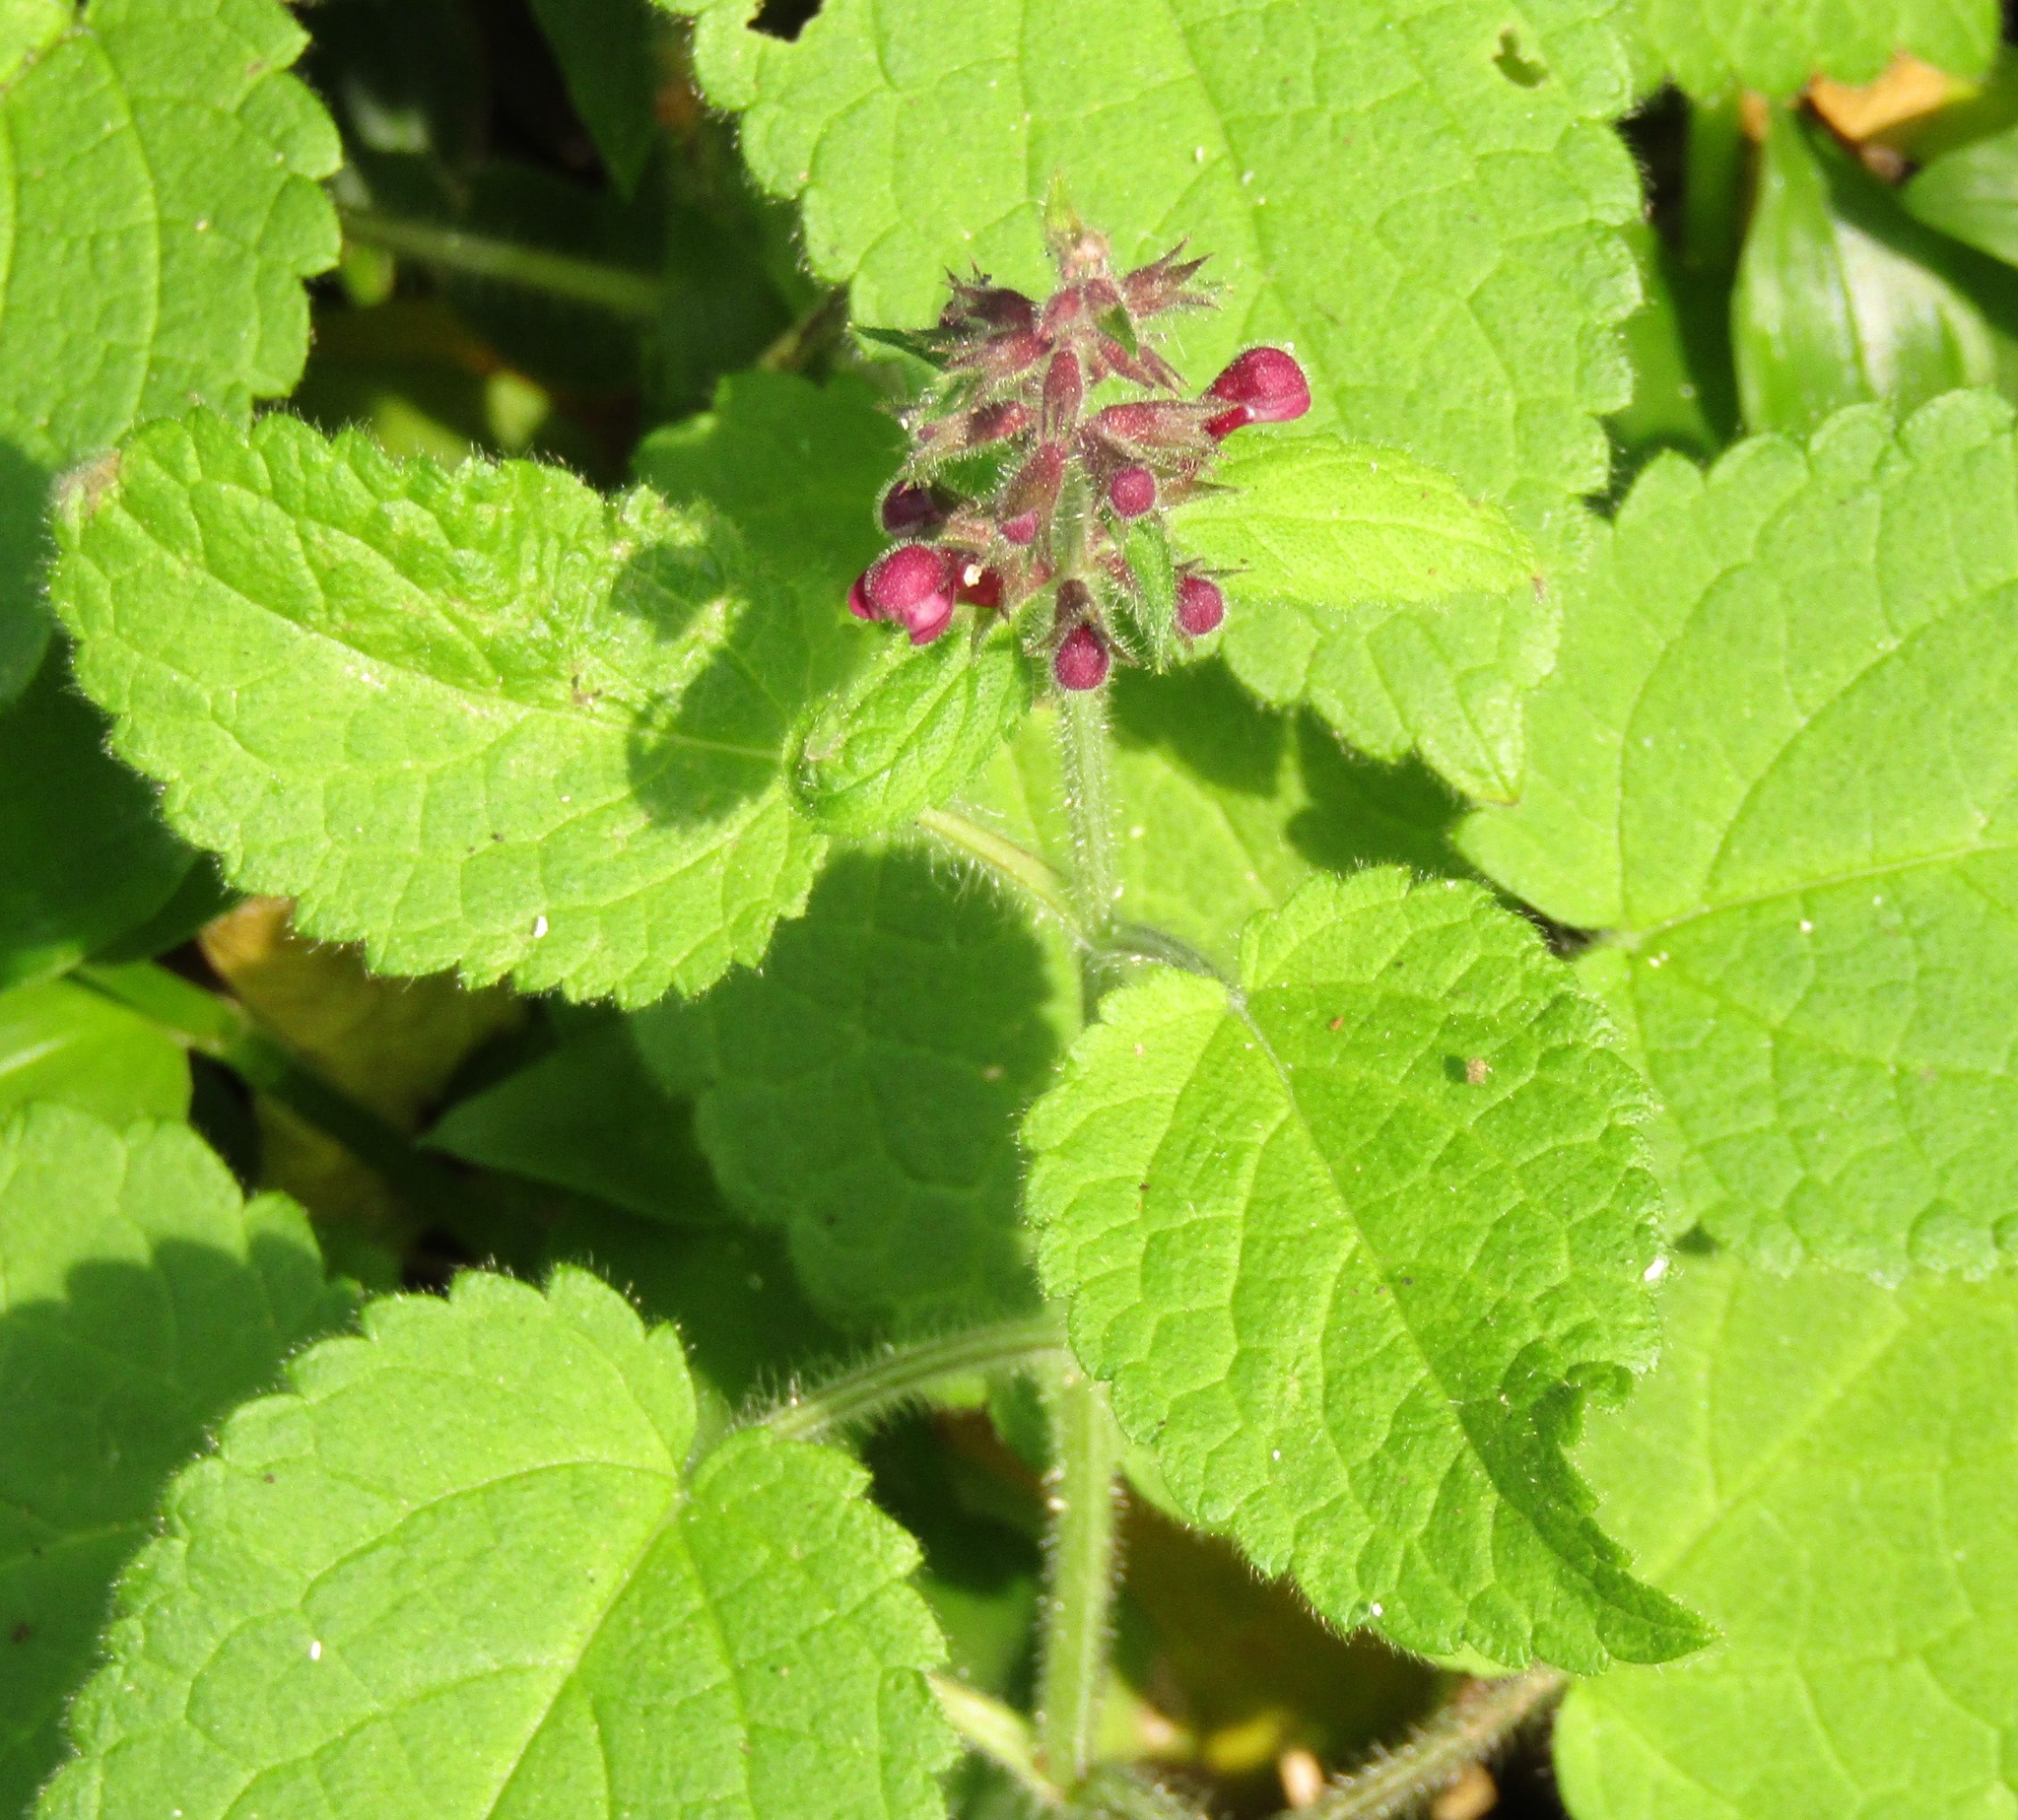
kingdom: Plantae
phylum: Tracheophyta
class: Magnoliopsida
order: Lamiales
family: Lamiaceae
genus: Stachys
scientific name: Stachys sylvatica
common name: Hedge woundwort
